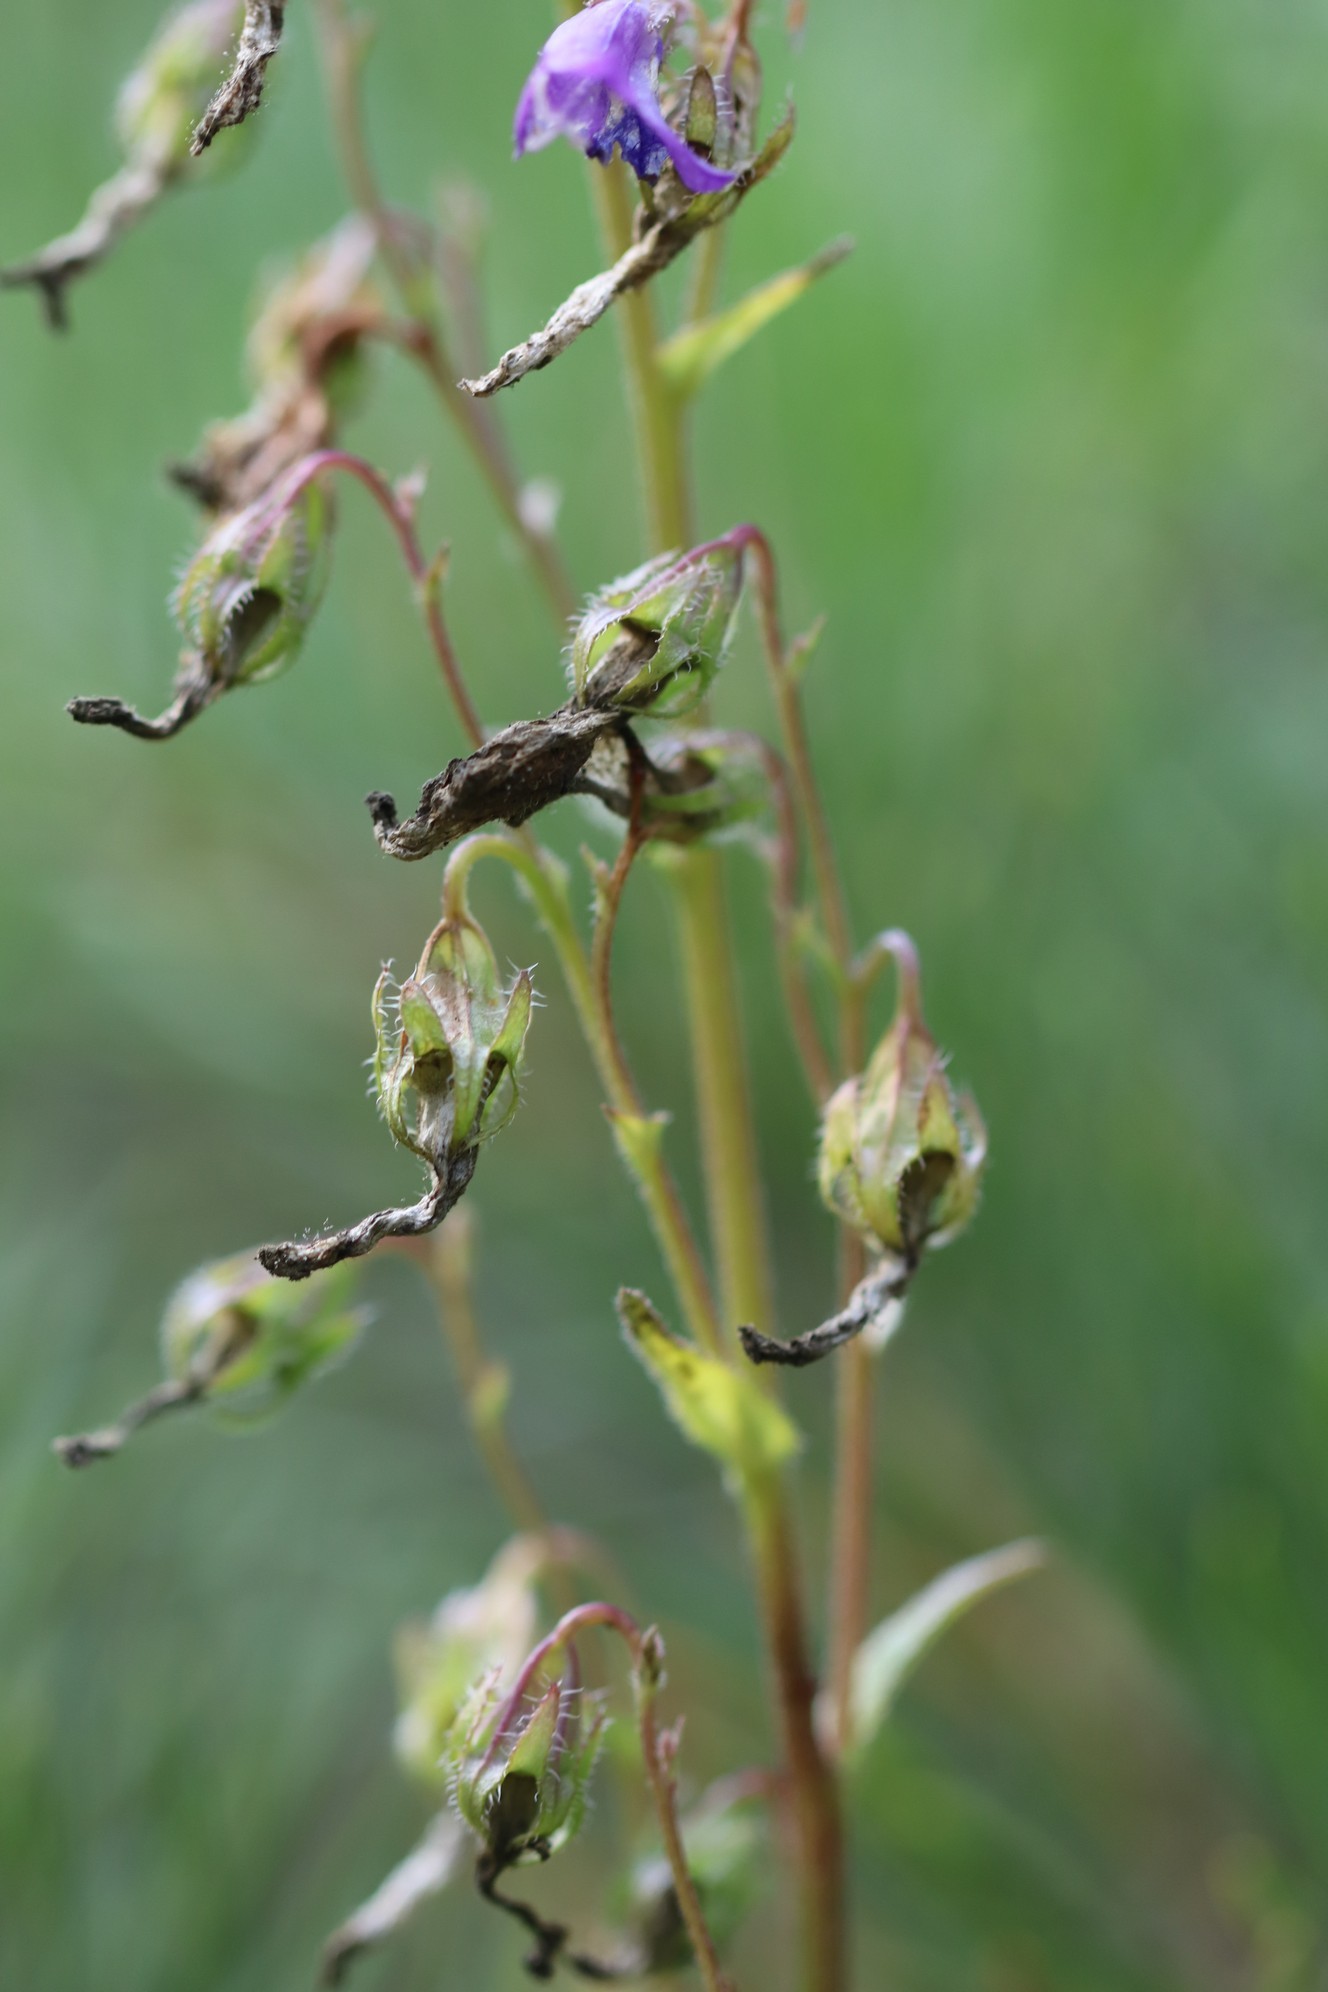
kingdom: Plantae
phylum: Tracheophyta
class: Magnoliopsida
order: Asterales
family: Campanulaceae
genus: Campanula
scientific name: Campanula sibirica
